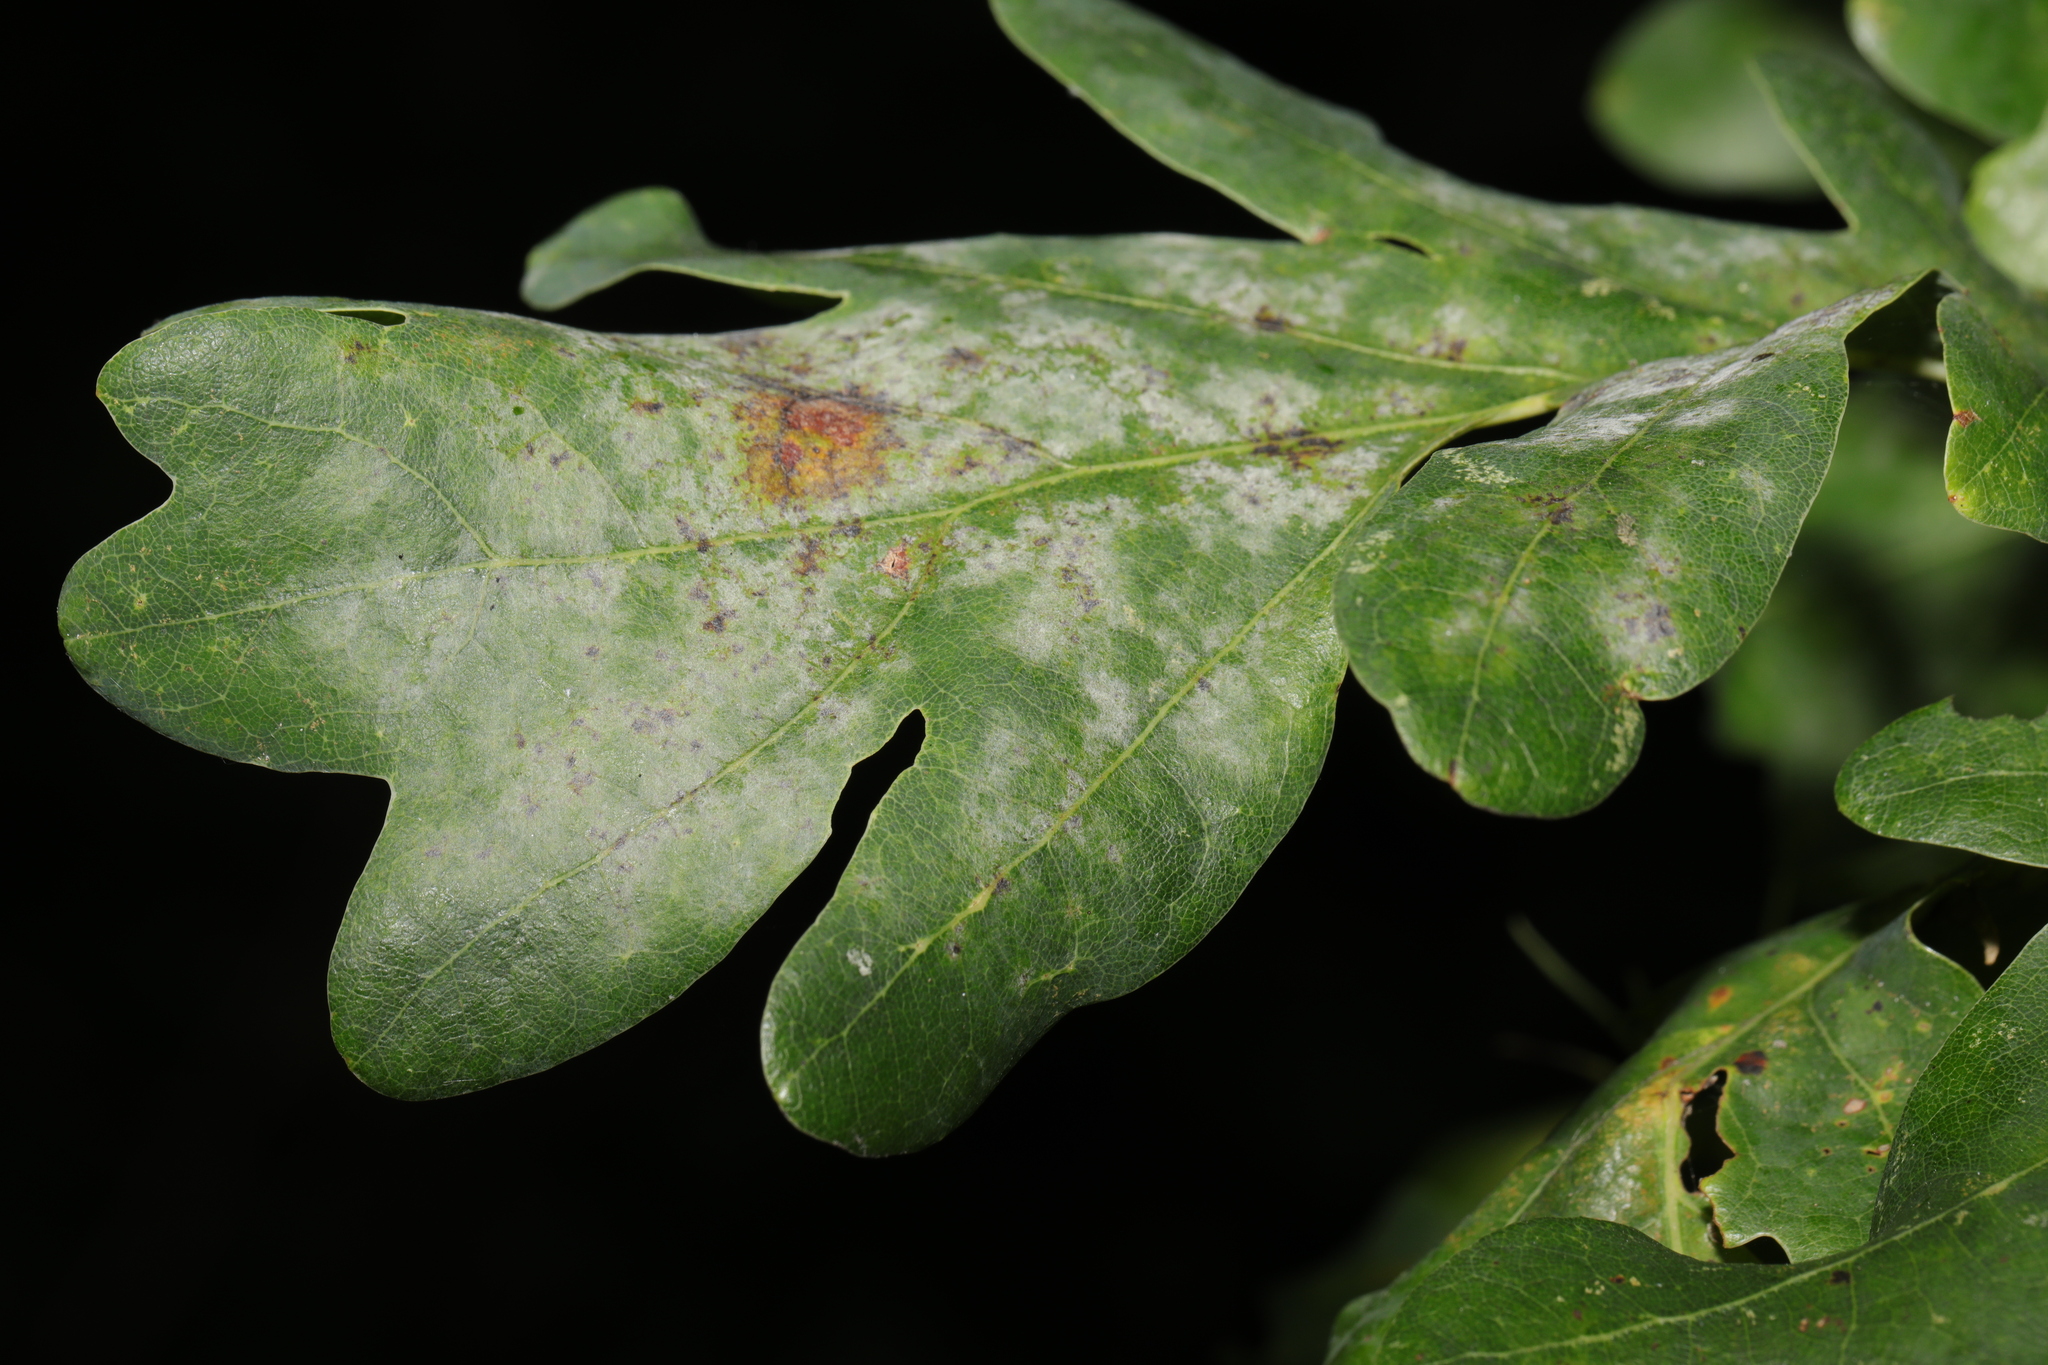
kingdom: Fungi
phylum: Ascomycota
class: Leotiomycetes
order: Helotiales
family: Erysiphaceae
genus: Erysiphe
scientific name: Erysiphe alphitoides
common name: Oak mildew
